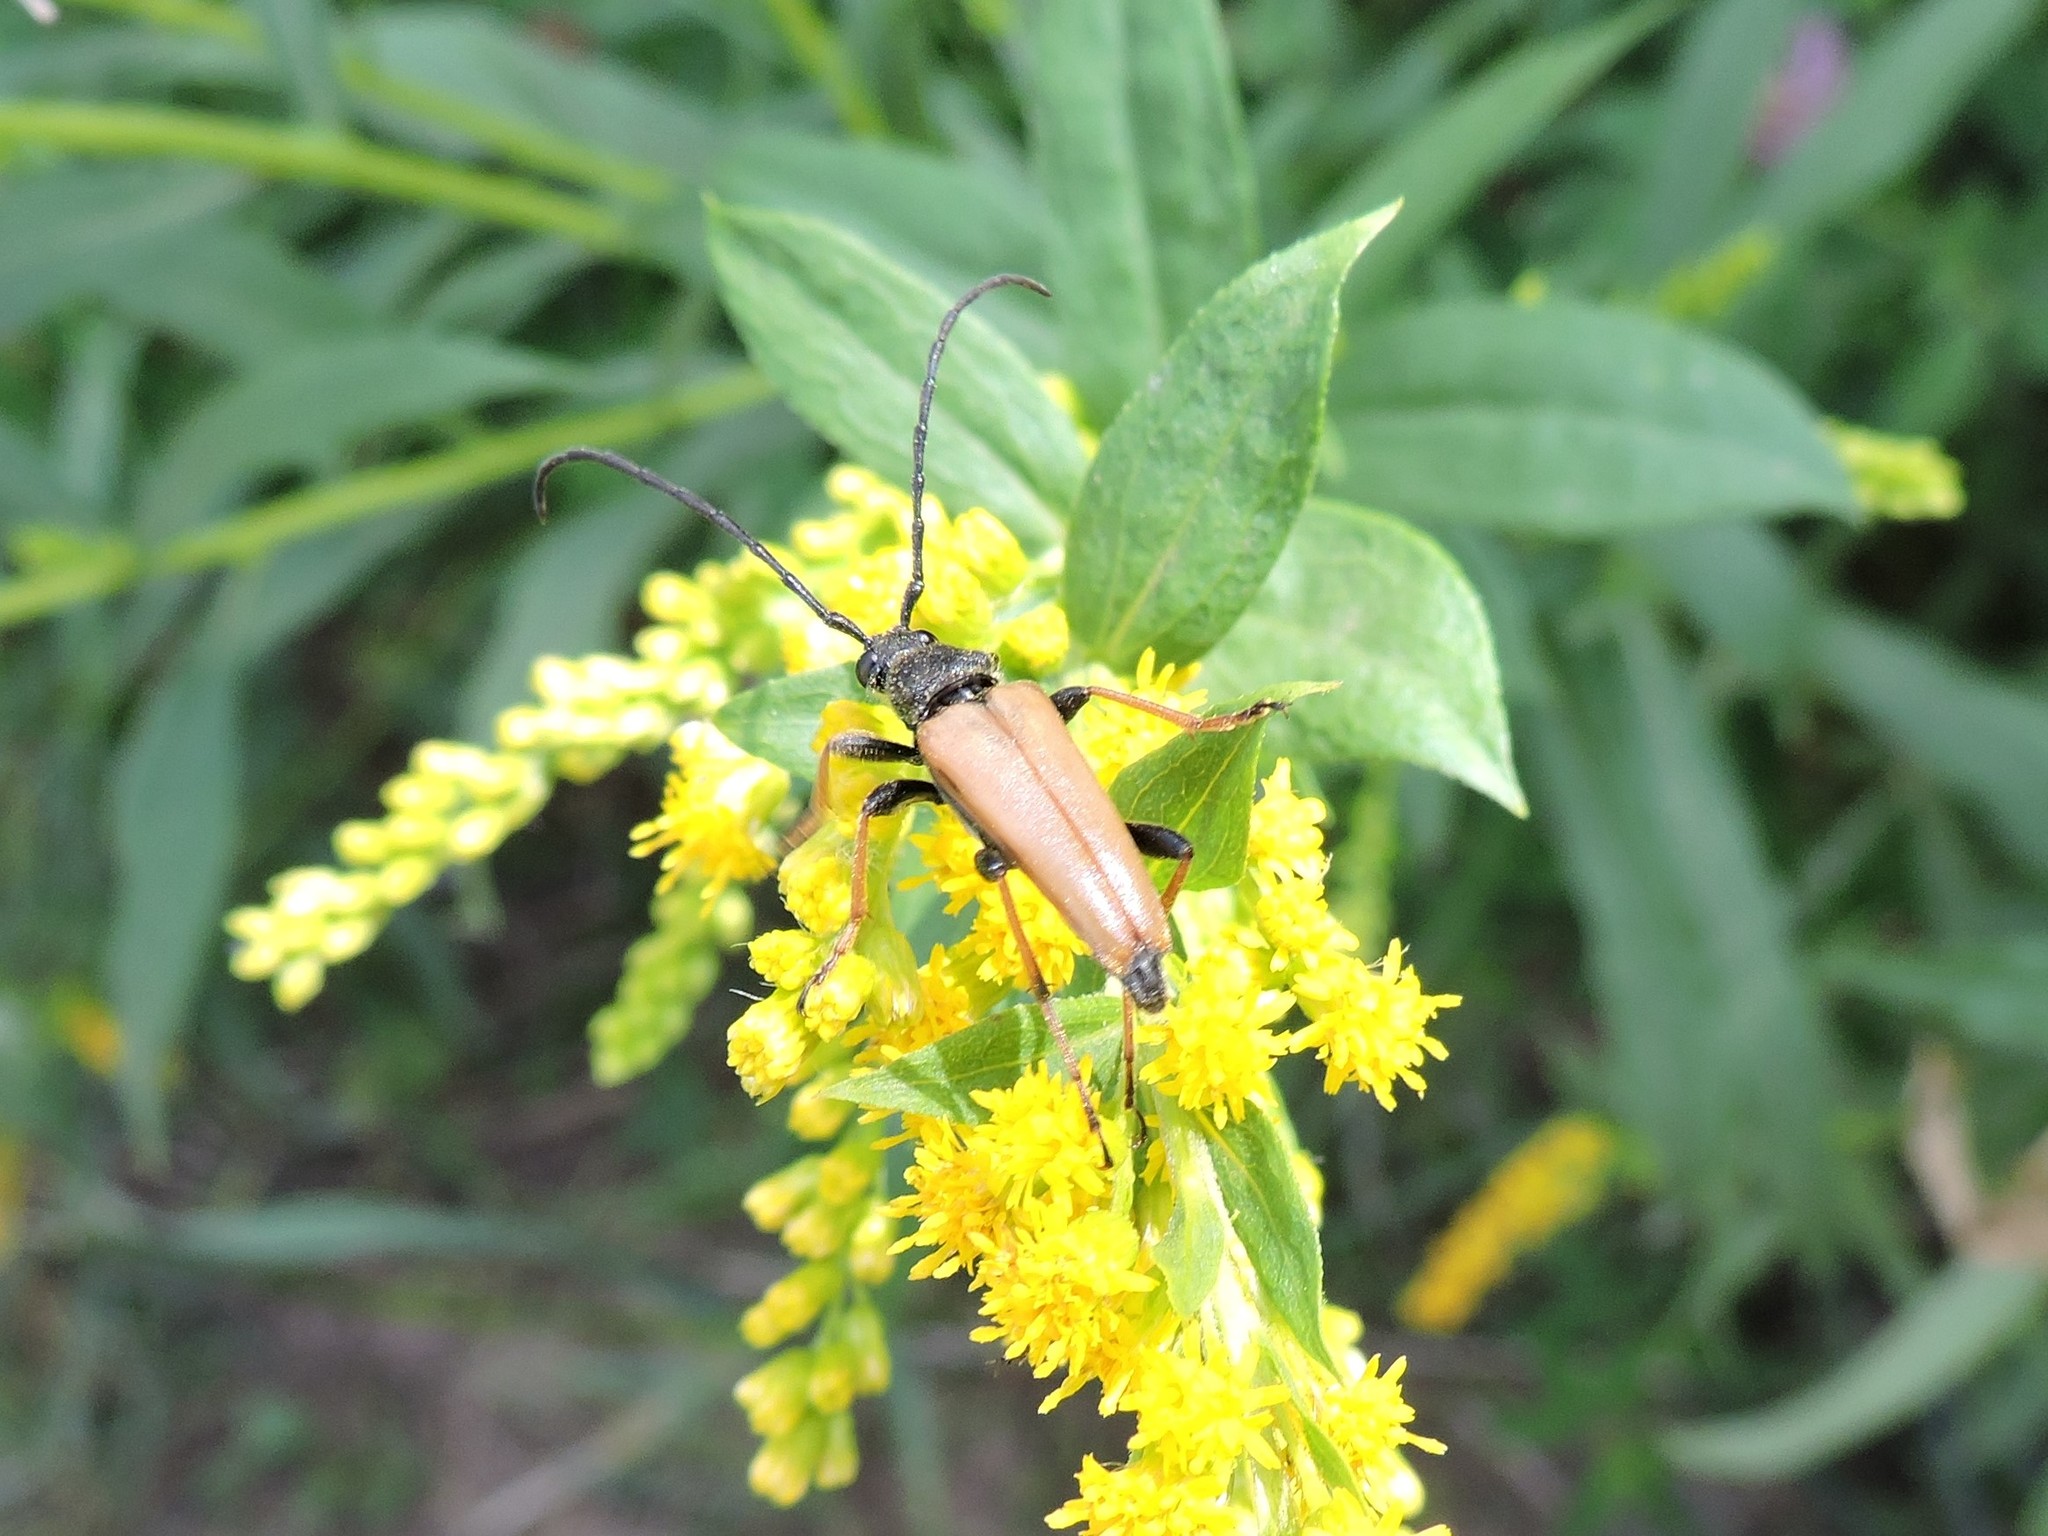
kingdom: Animalia
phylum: Arthropoda
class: Insecta
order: Coleoptera
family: Cerambycidae
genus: Stictoleptura
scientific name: Stictoleptura rubra
